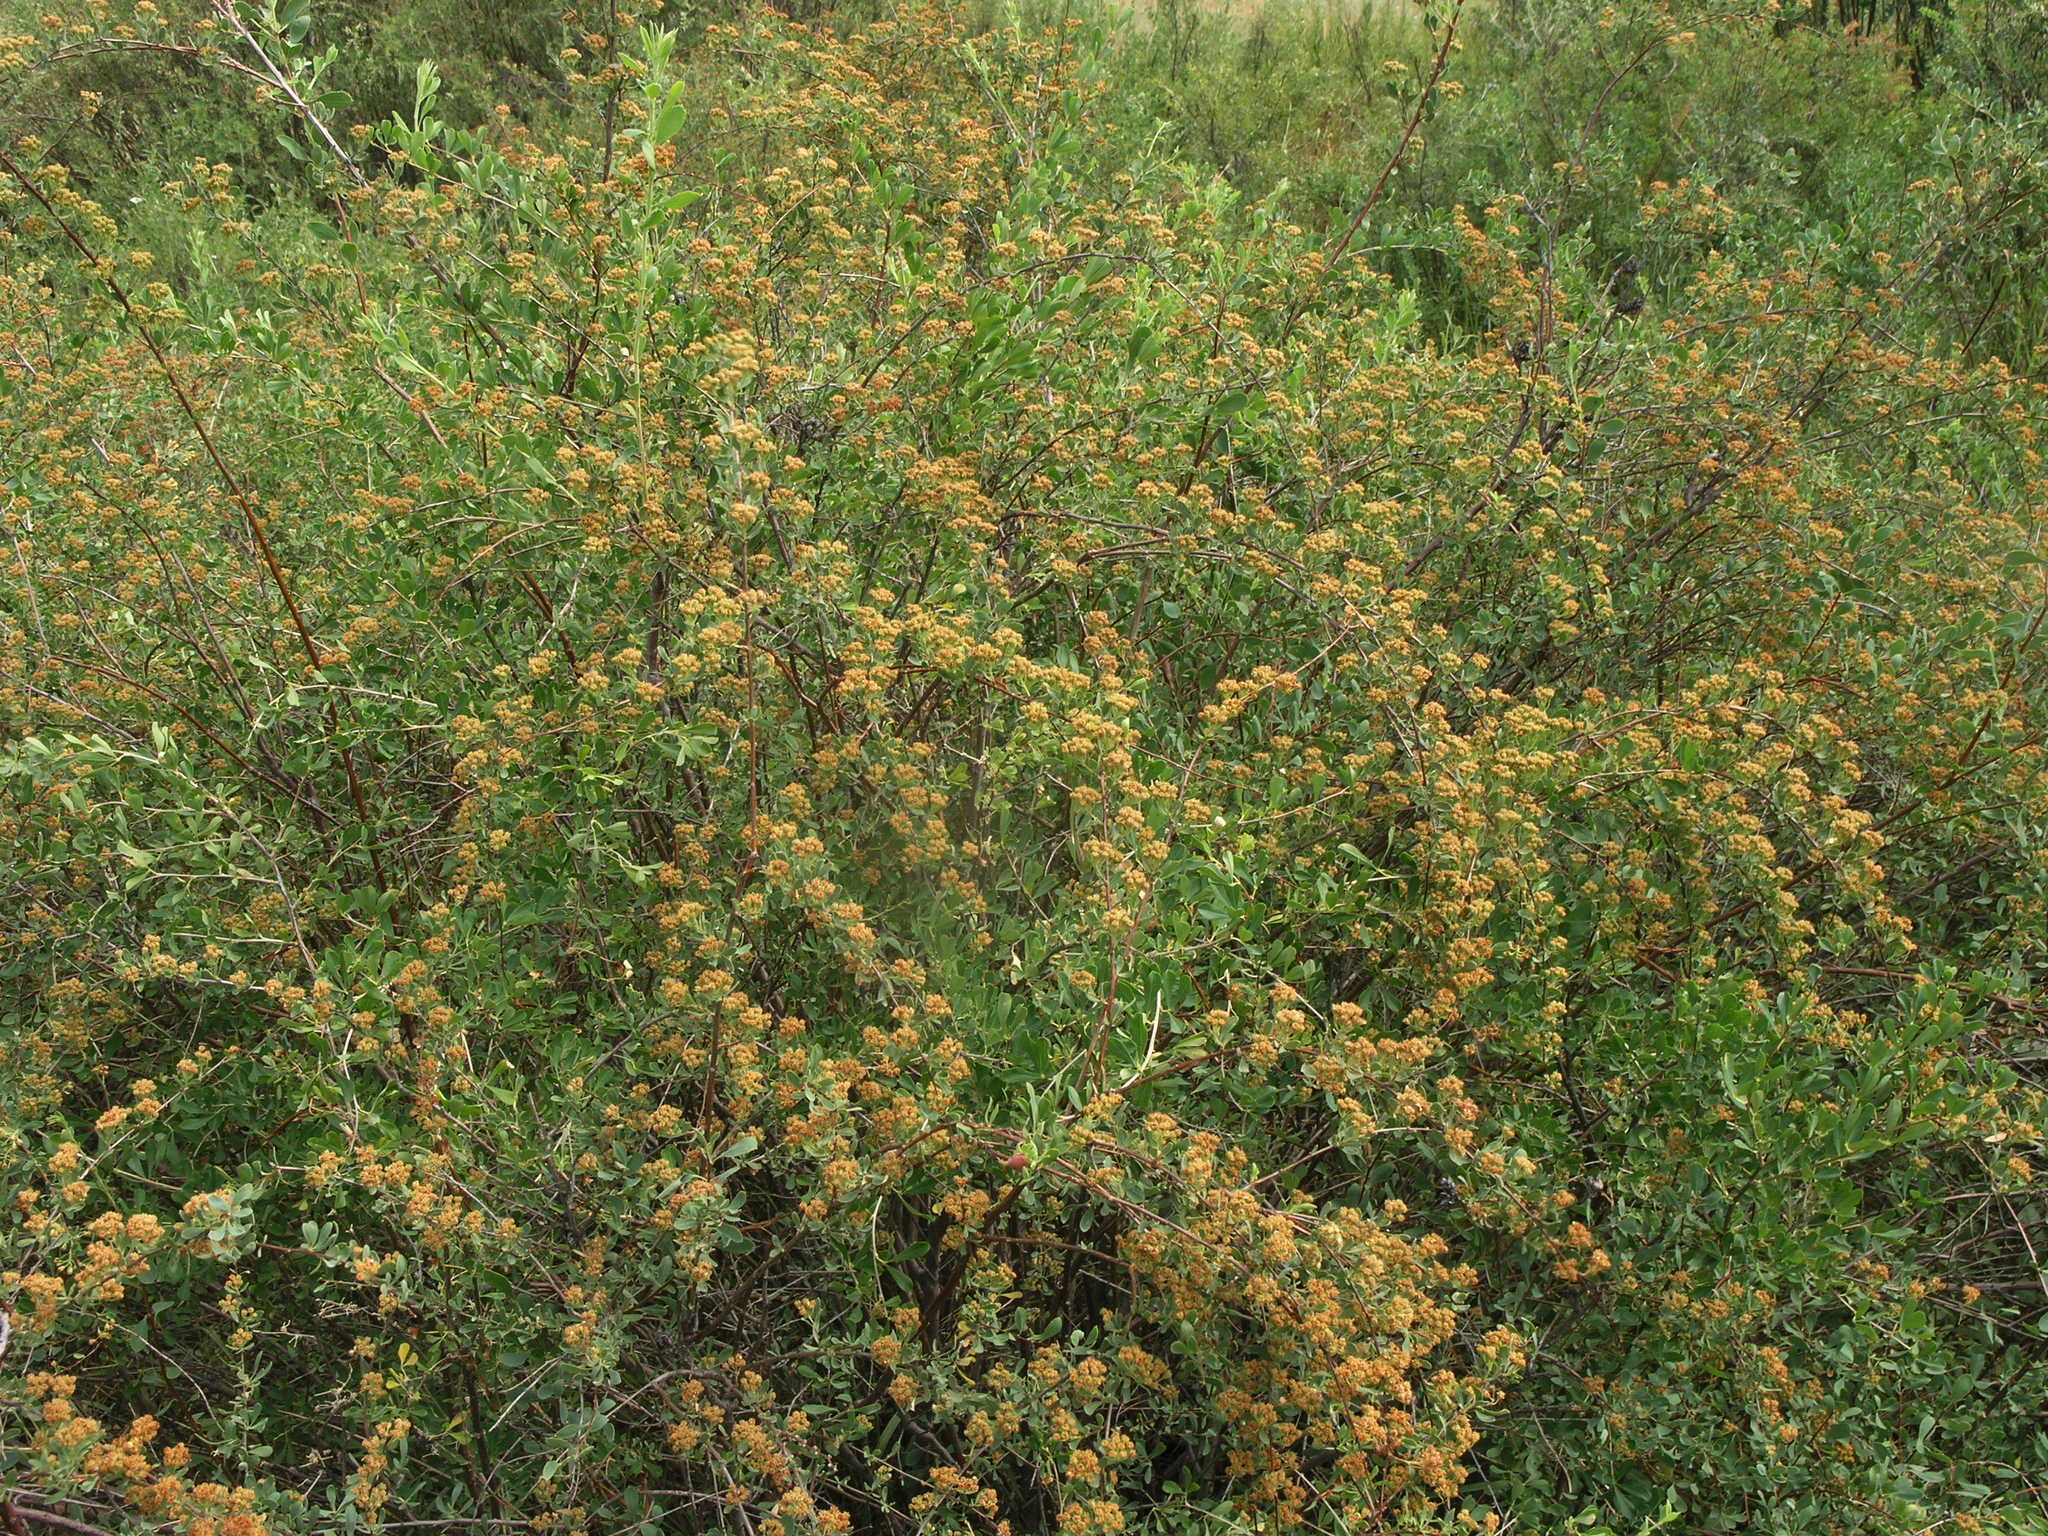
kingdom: Plantae
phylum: Tracheophyta
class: Magnoliopsida
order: Rosales
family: Rosaceae
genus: Spiraea
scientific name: Spiraea crenata
